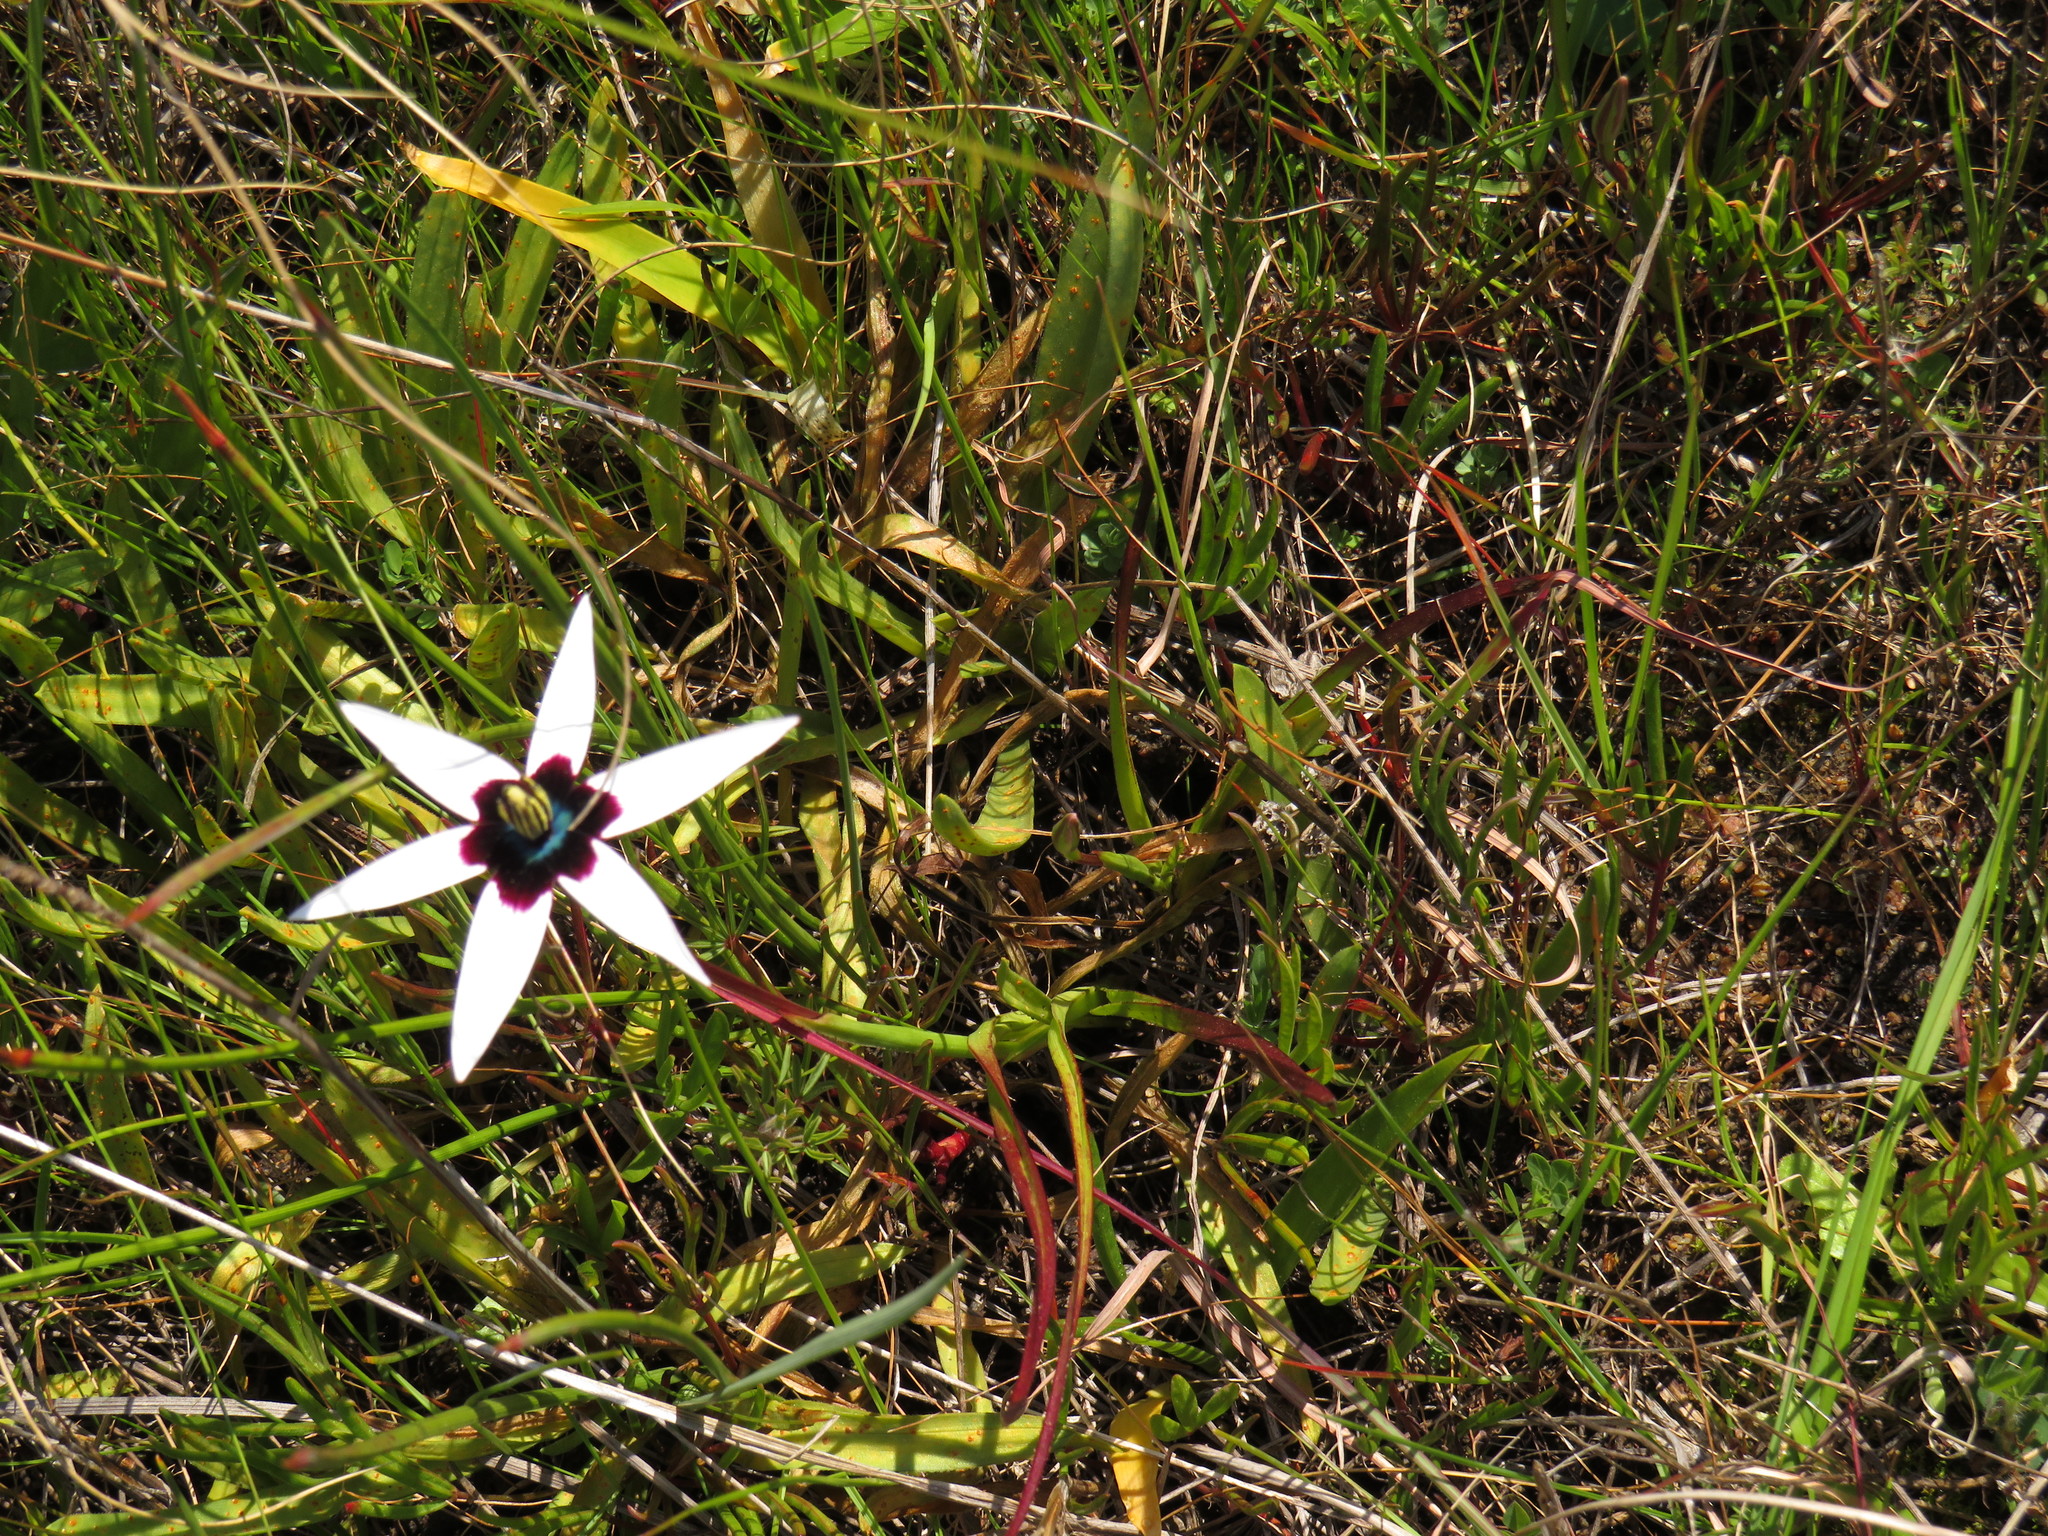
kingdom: Plantae
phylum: Tracheophyta
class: Liliopsida
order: Asparagales
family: Hypoxidaceae
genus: Pauridia
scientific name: Pauridia capensis
